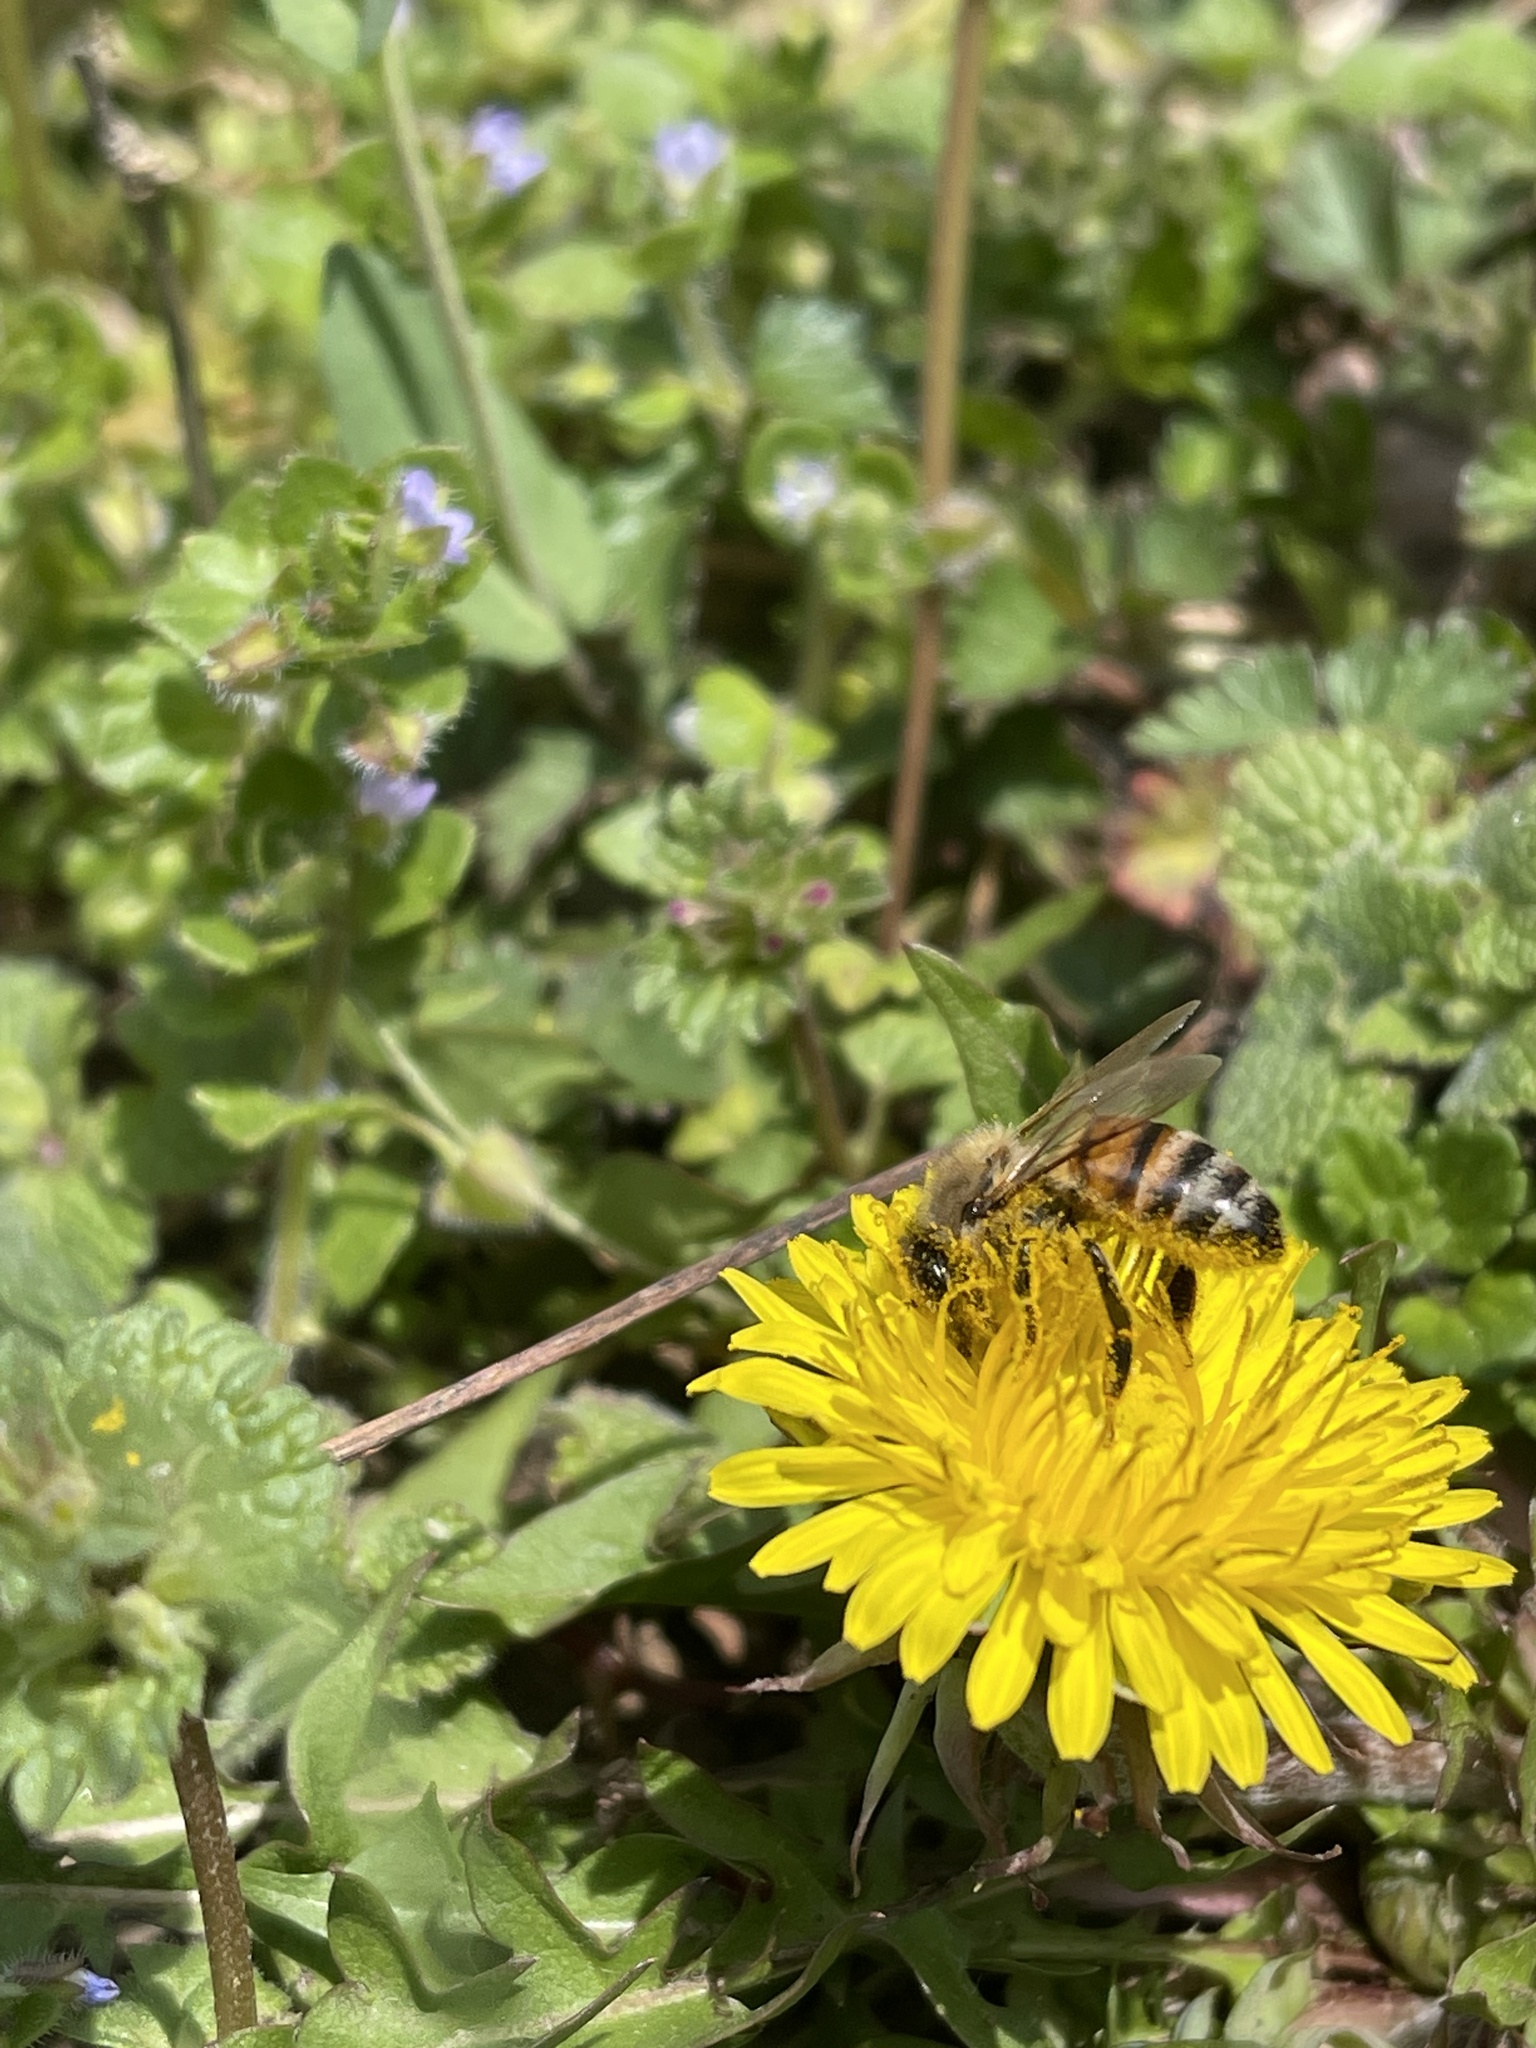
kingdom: Animalia
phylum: Arthropoda
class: Insecta
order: Hymenoptera
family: Apidae
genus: Apis
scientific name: Apis mellifera
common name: Honey bee
